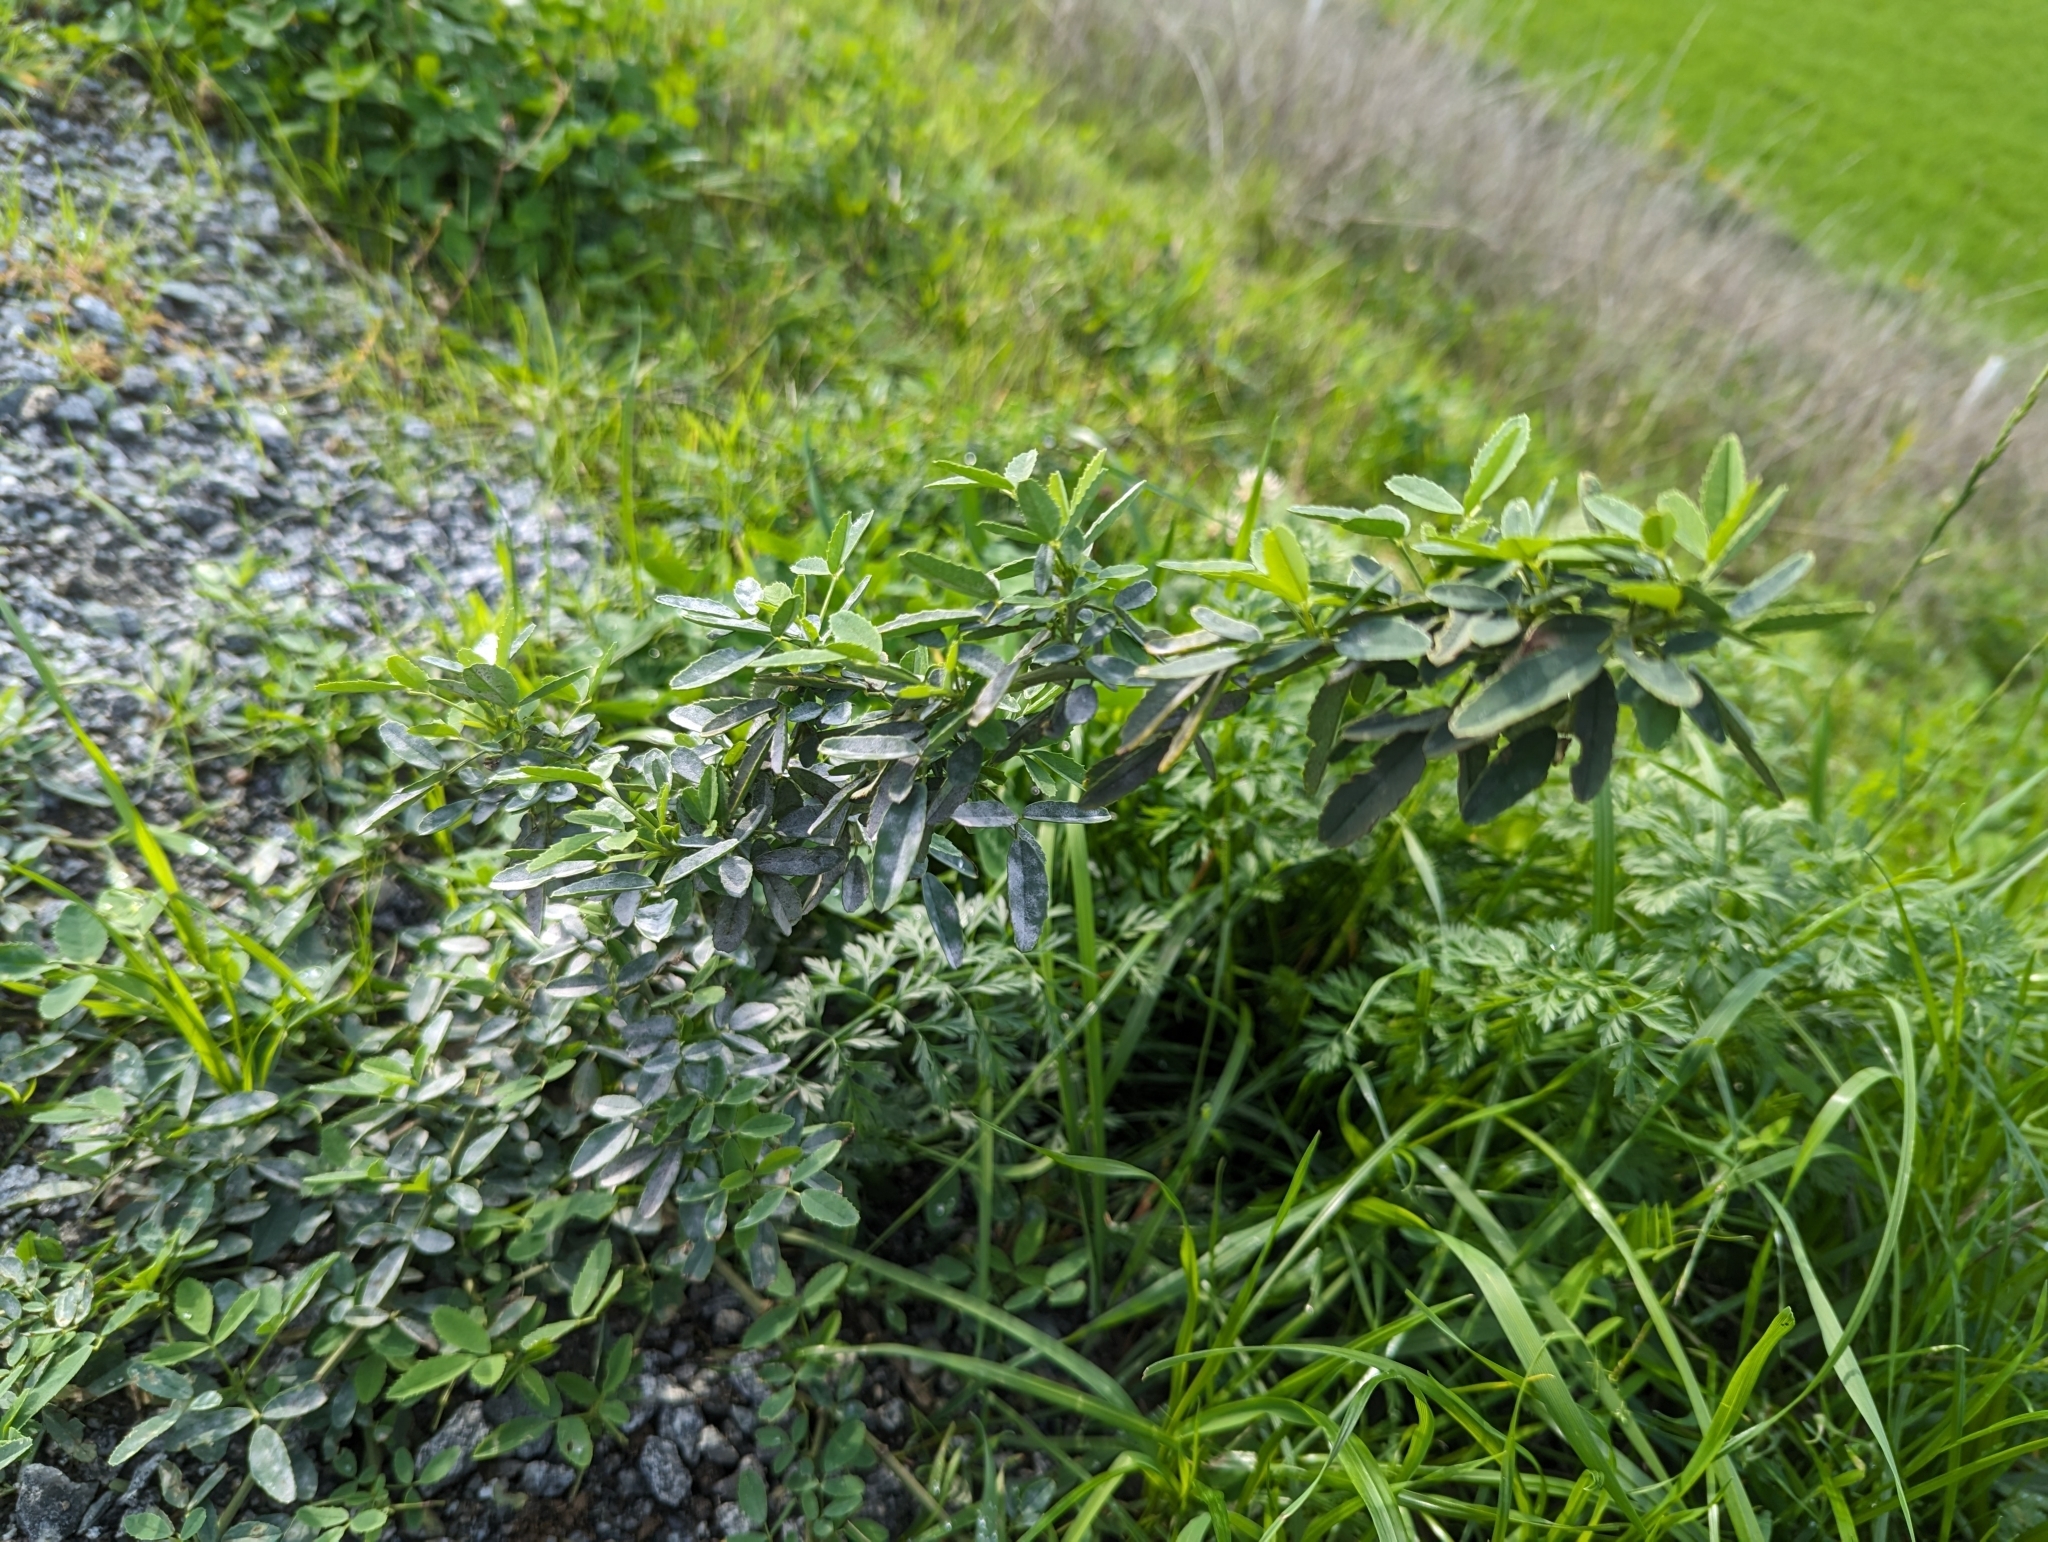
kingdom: Plantae
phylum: Tracheophyta
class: Magnoliopsida
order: Fabales
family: Fabaceae
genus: Melilotus
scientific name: Melilotus
